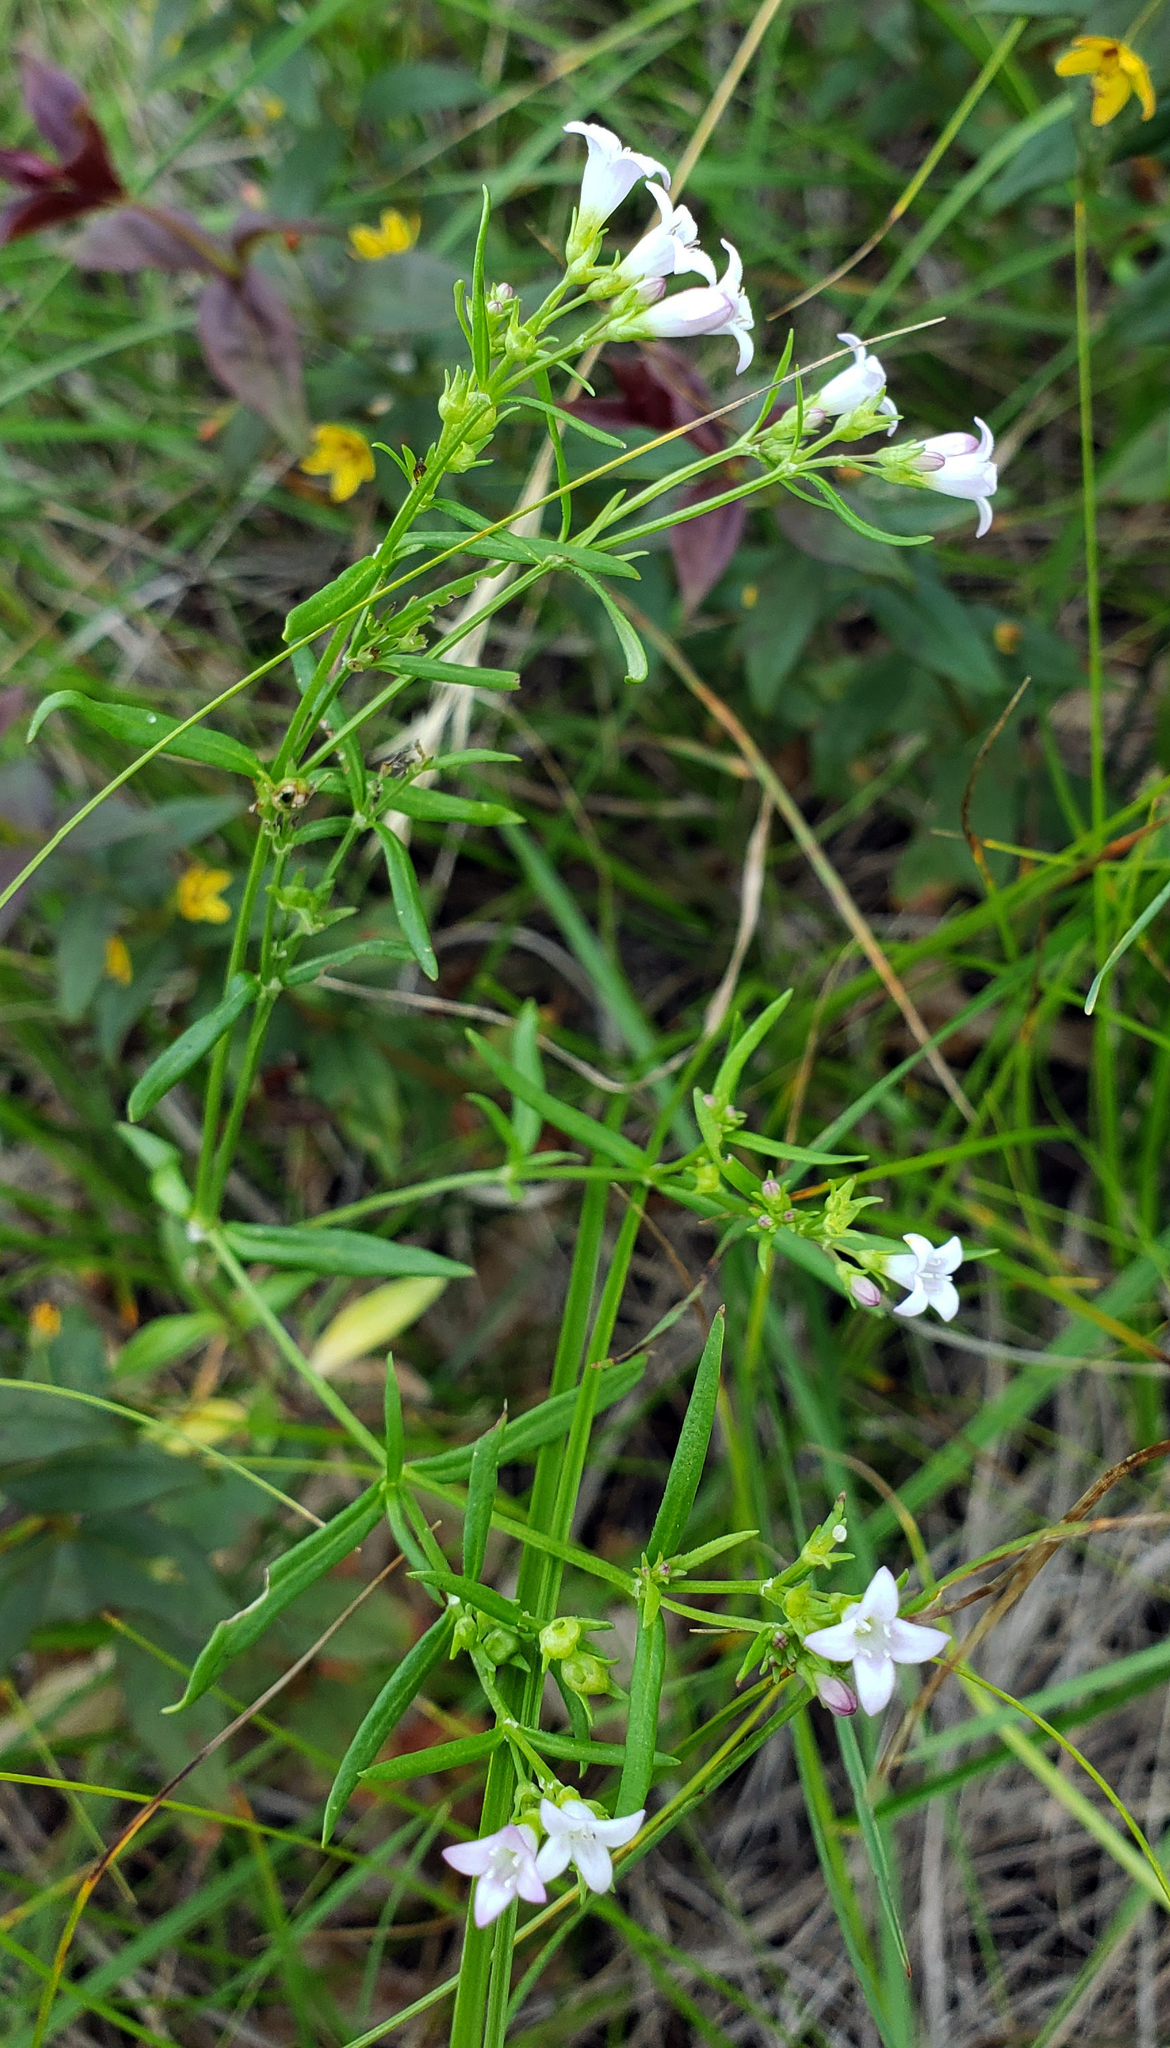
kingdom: Plantae
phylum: Tracheophyta
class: Magnoliopsida
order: Gentianales
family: Rubiaceae
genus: Houstonia
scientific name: Houstonia longifolia
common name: Long-leaved bluets
